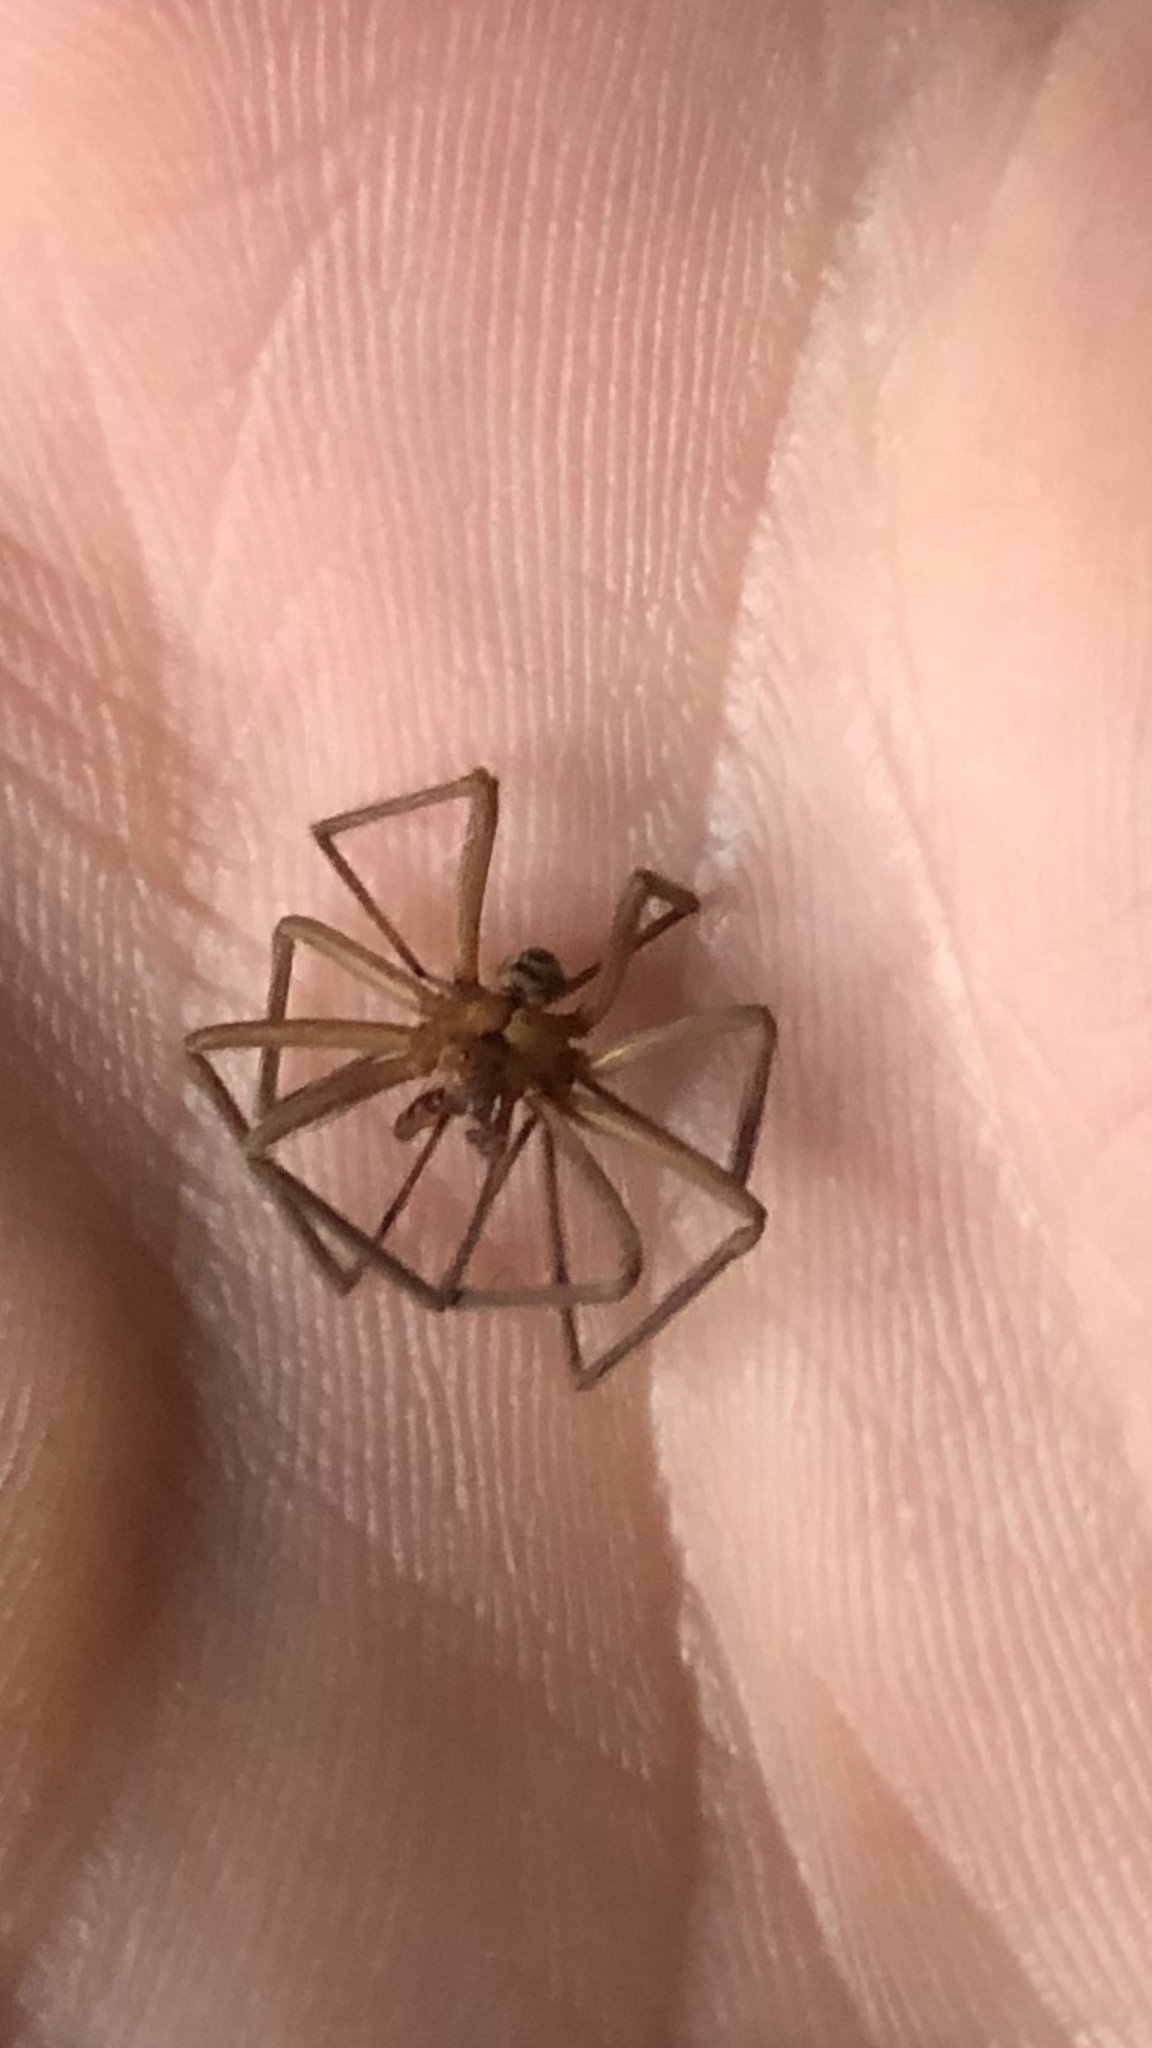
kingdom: Animalia
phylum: Arthropoda
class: Arachnida
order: Araneae
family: Sicariidae
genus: Loxosceles
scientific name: Loxosceles reclusa
